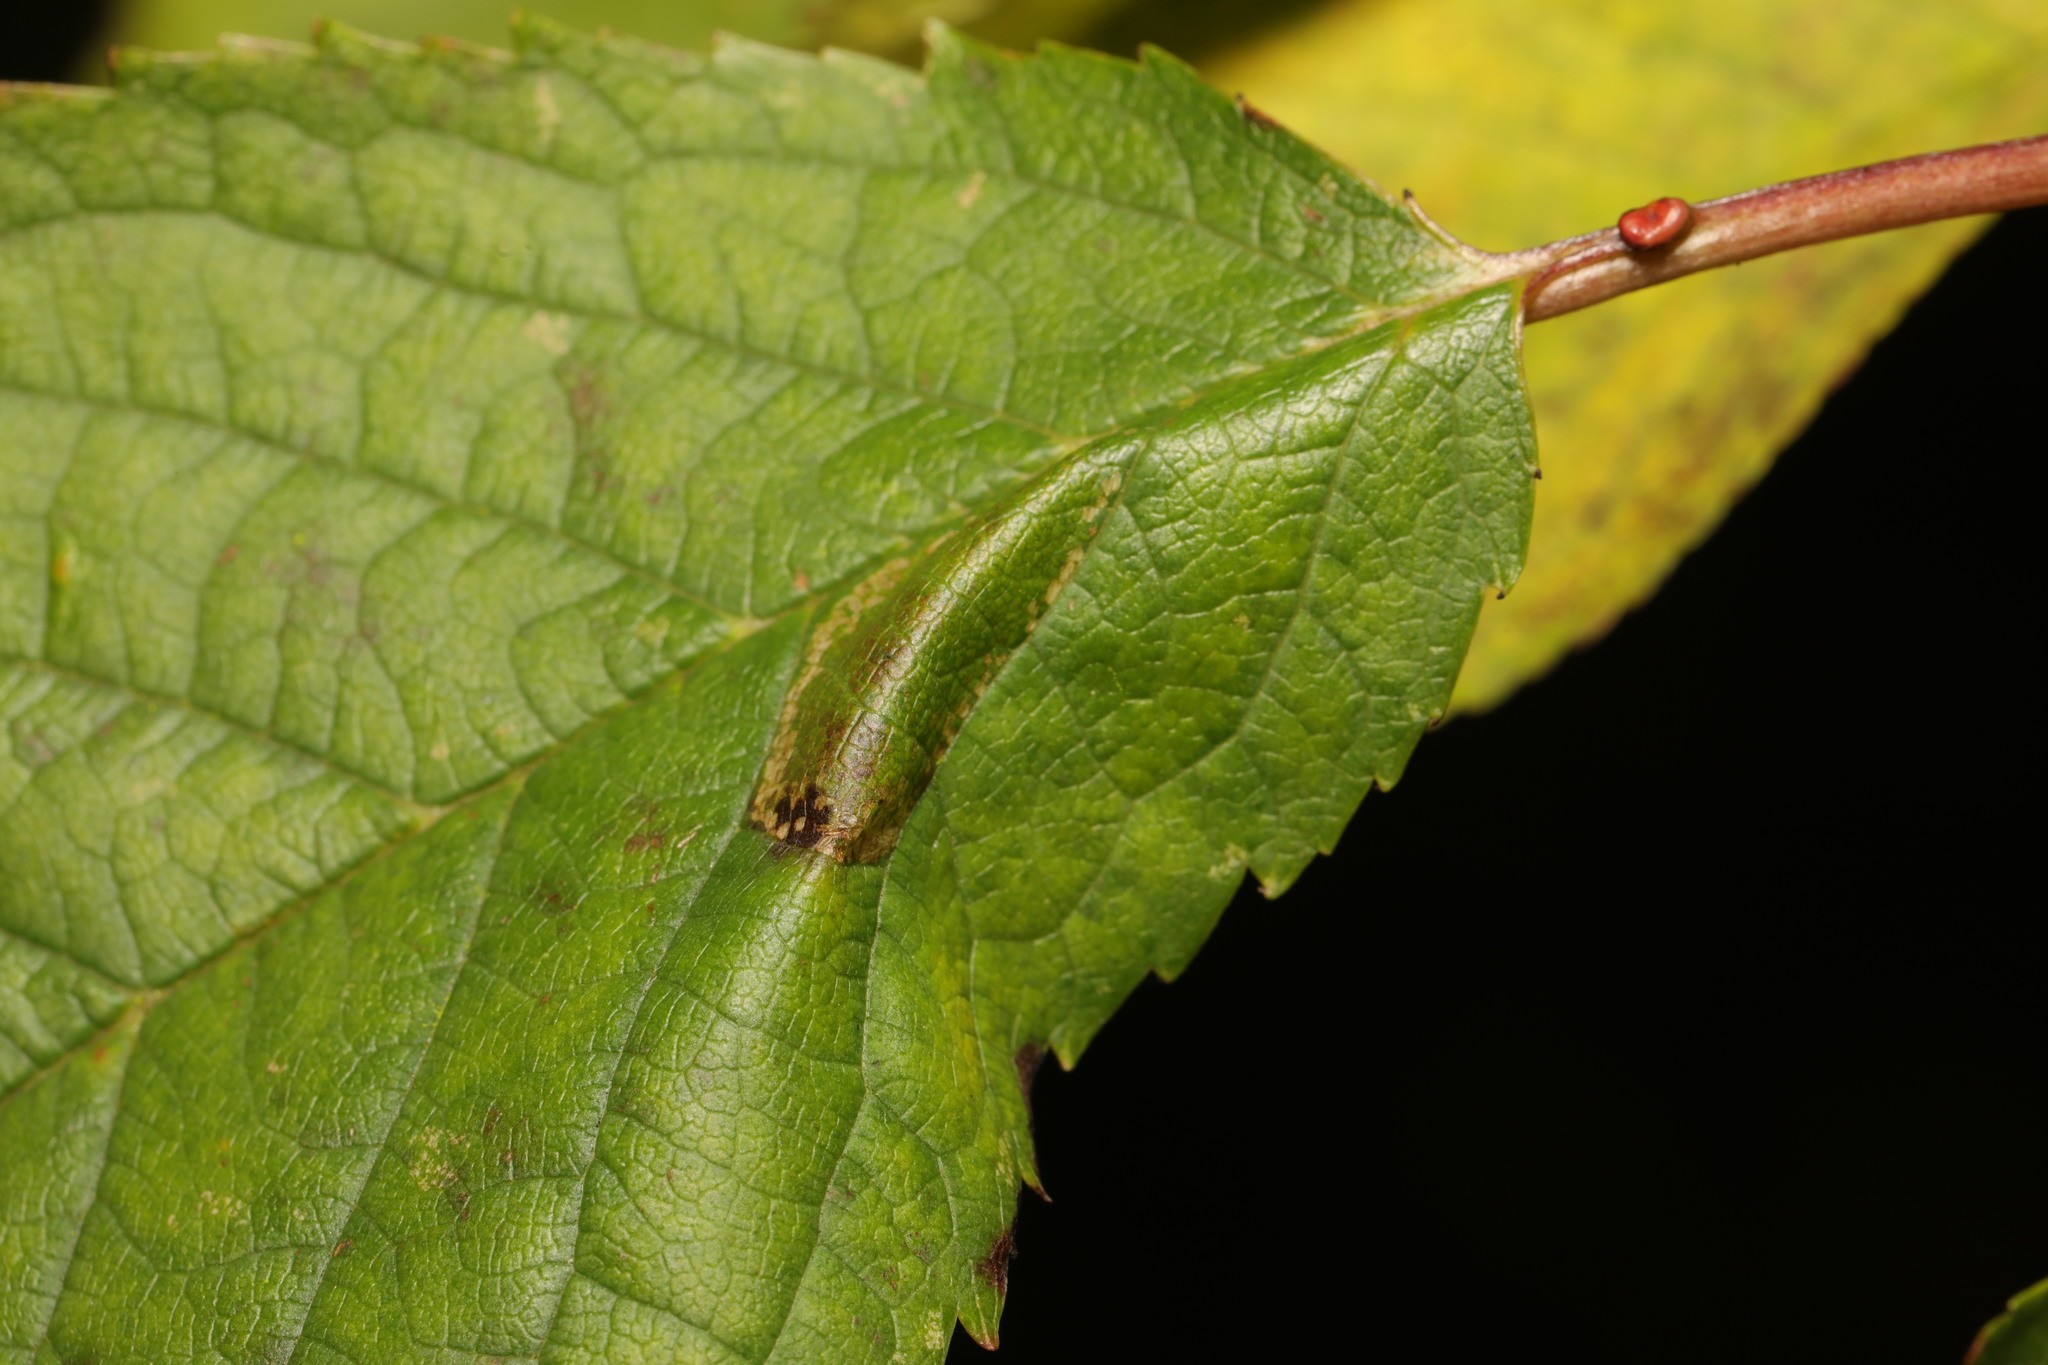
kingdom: Animalia
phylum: Arthropoda
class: Insecta
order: Lepidoptera
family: Gracillariidae
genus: Phyllonorycter
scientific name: Phyllonorycter cerasicolella
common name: Cherry midget
